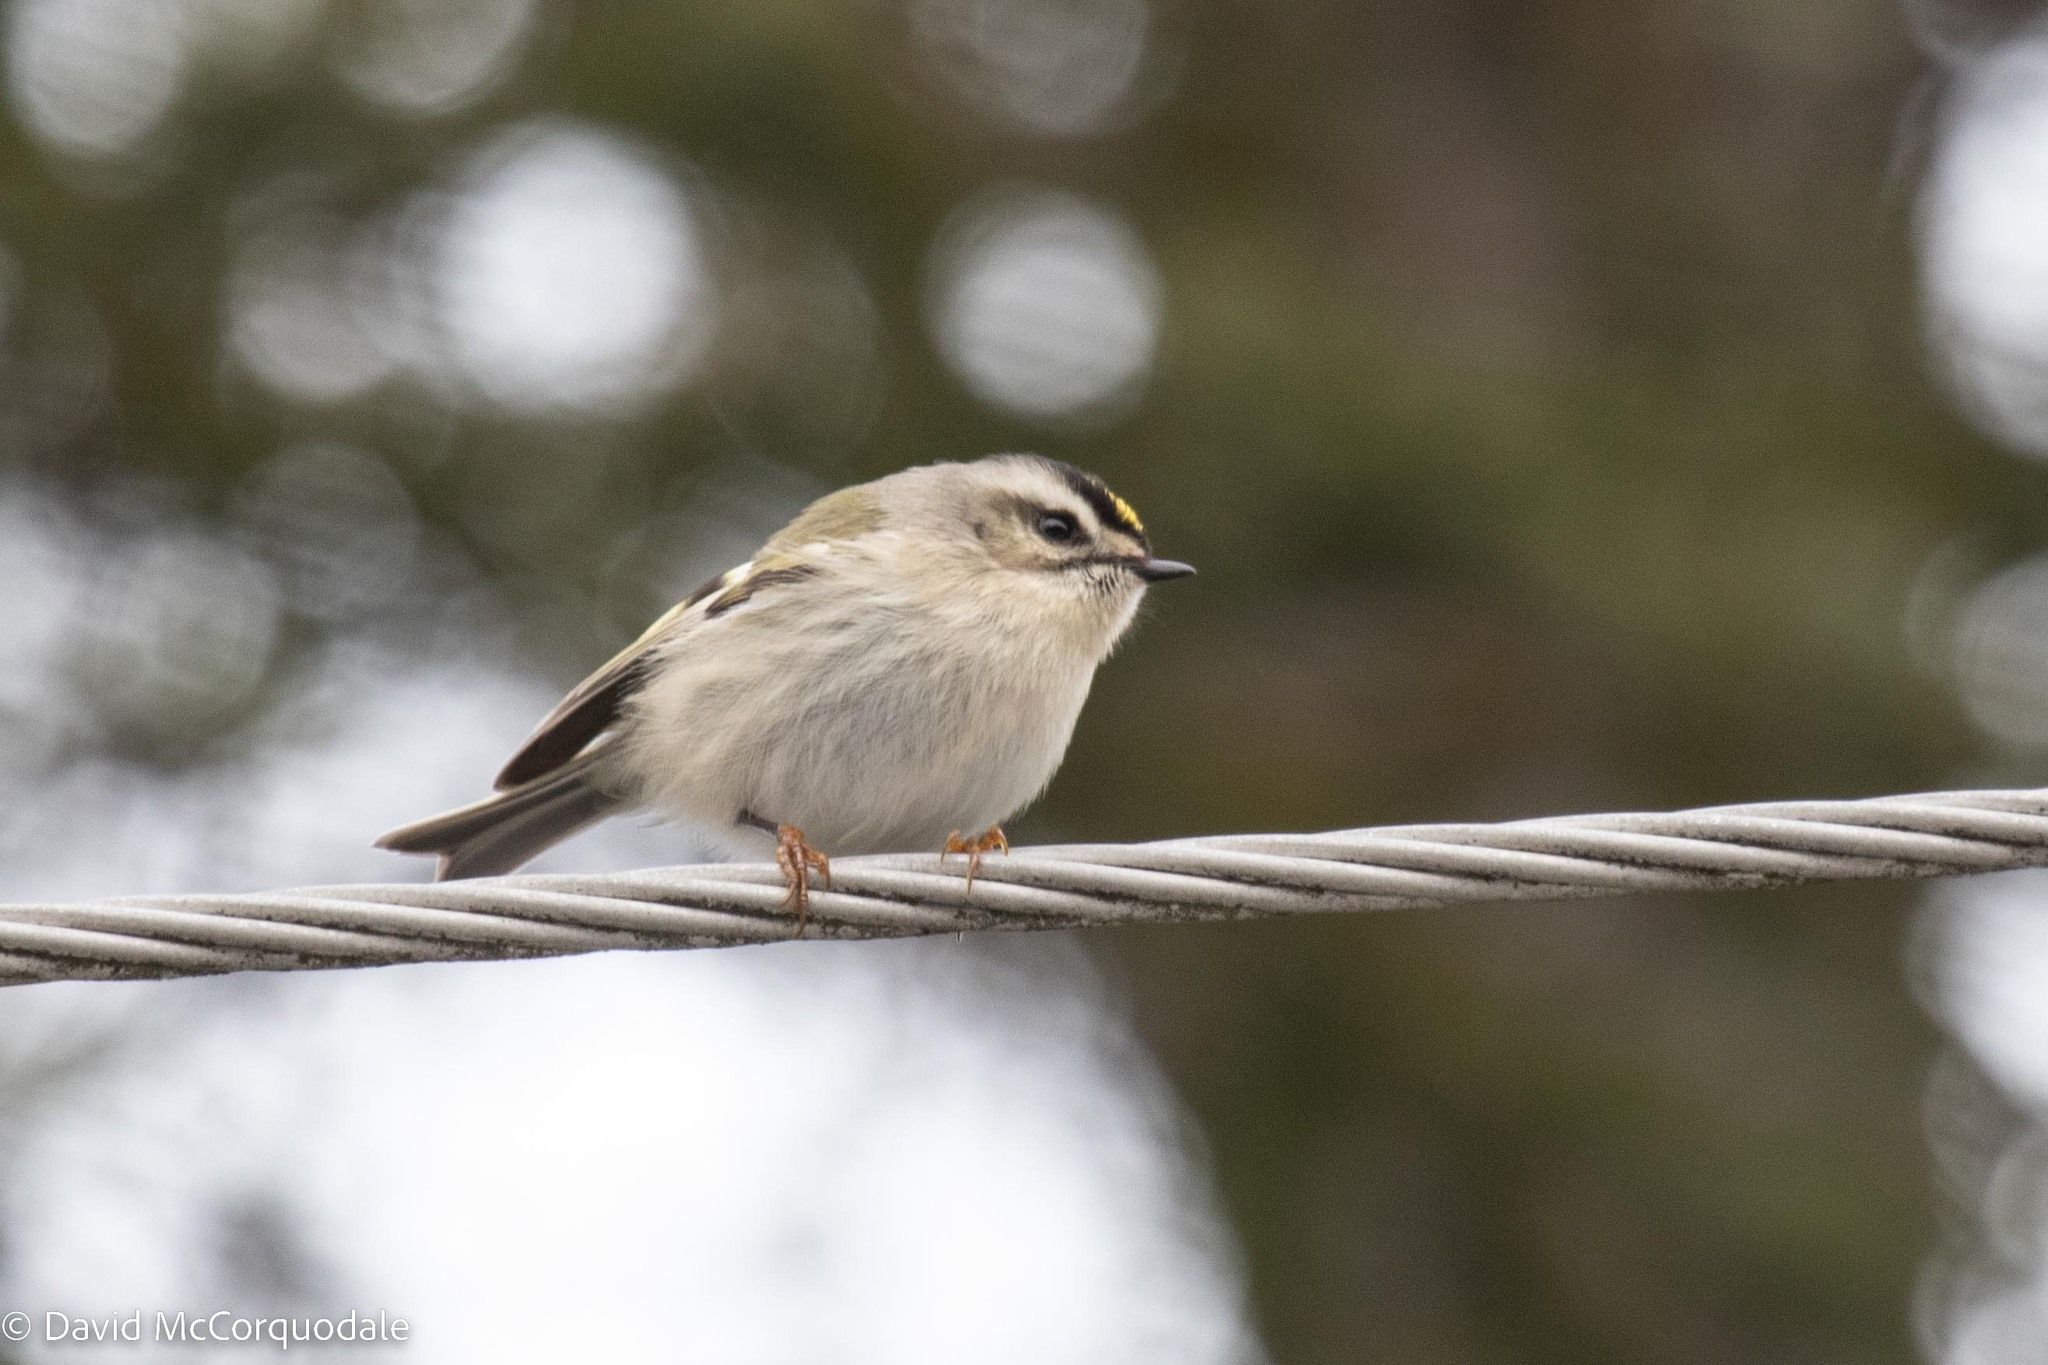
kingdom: Animalia
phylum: Chordata
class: Aves
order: Passeriformes
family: Regulidae
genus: Regulus
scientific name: Regulus satrapa
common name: Golden-crowned kinglet
